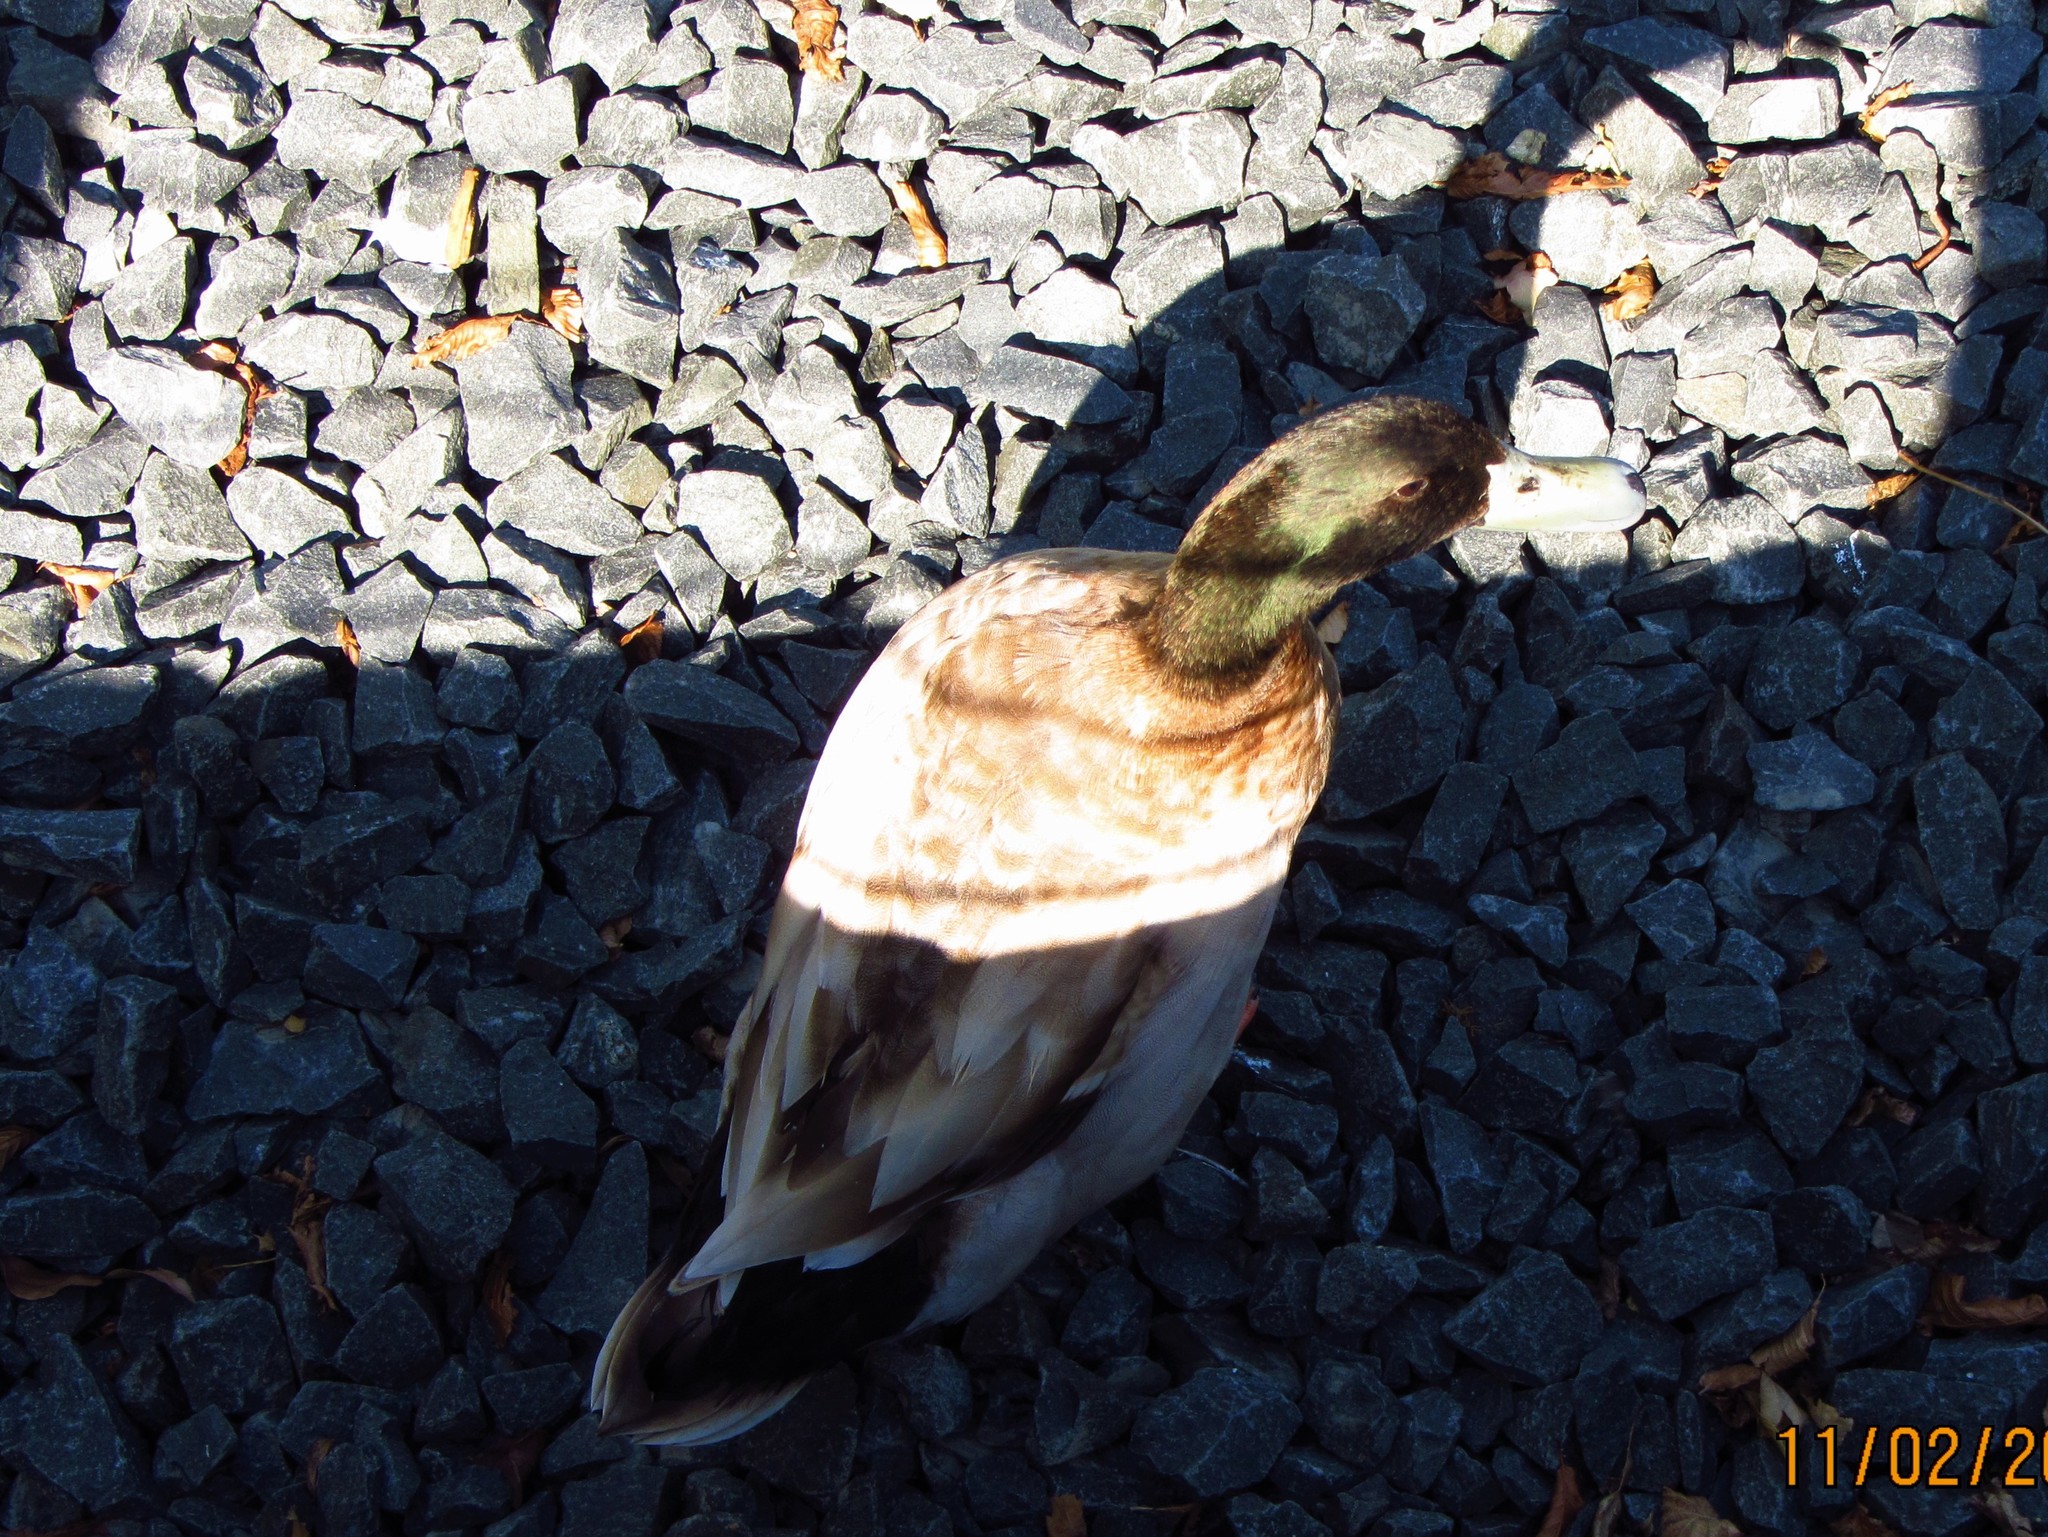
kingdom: Animalia
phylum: Chordata
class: Aves
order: Anseriformes
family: Anatidae
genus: Anas
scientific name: Anas platyrhynchos
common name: Mallard
